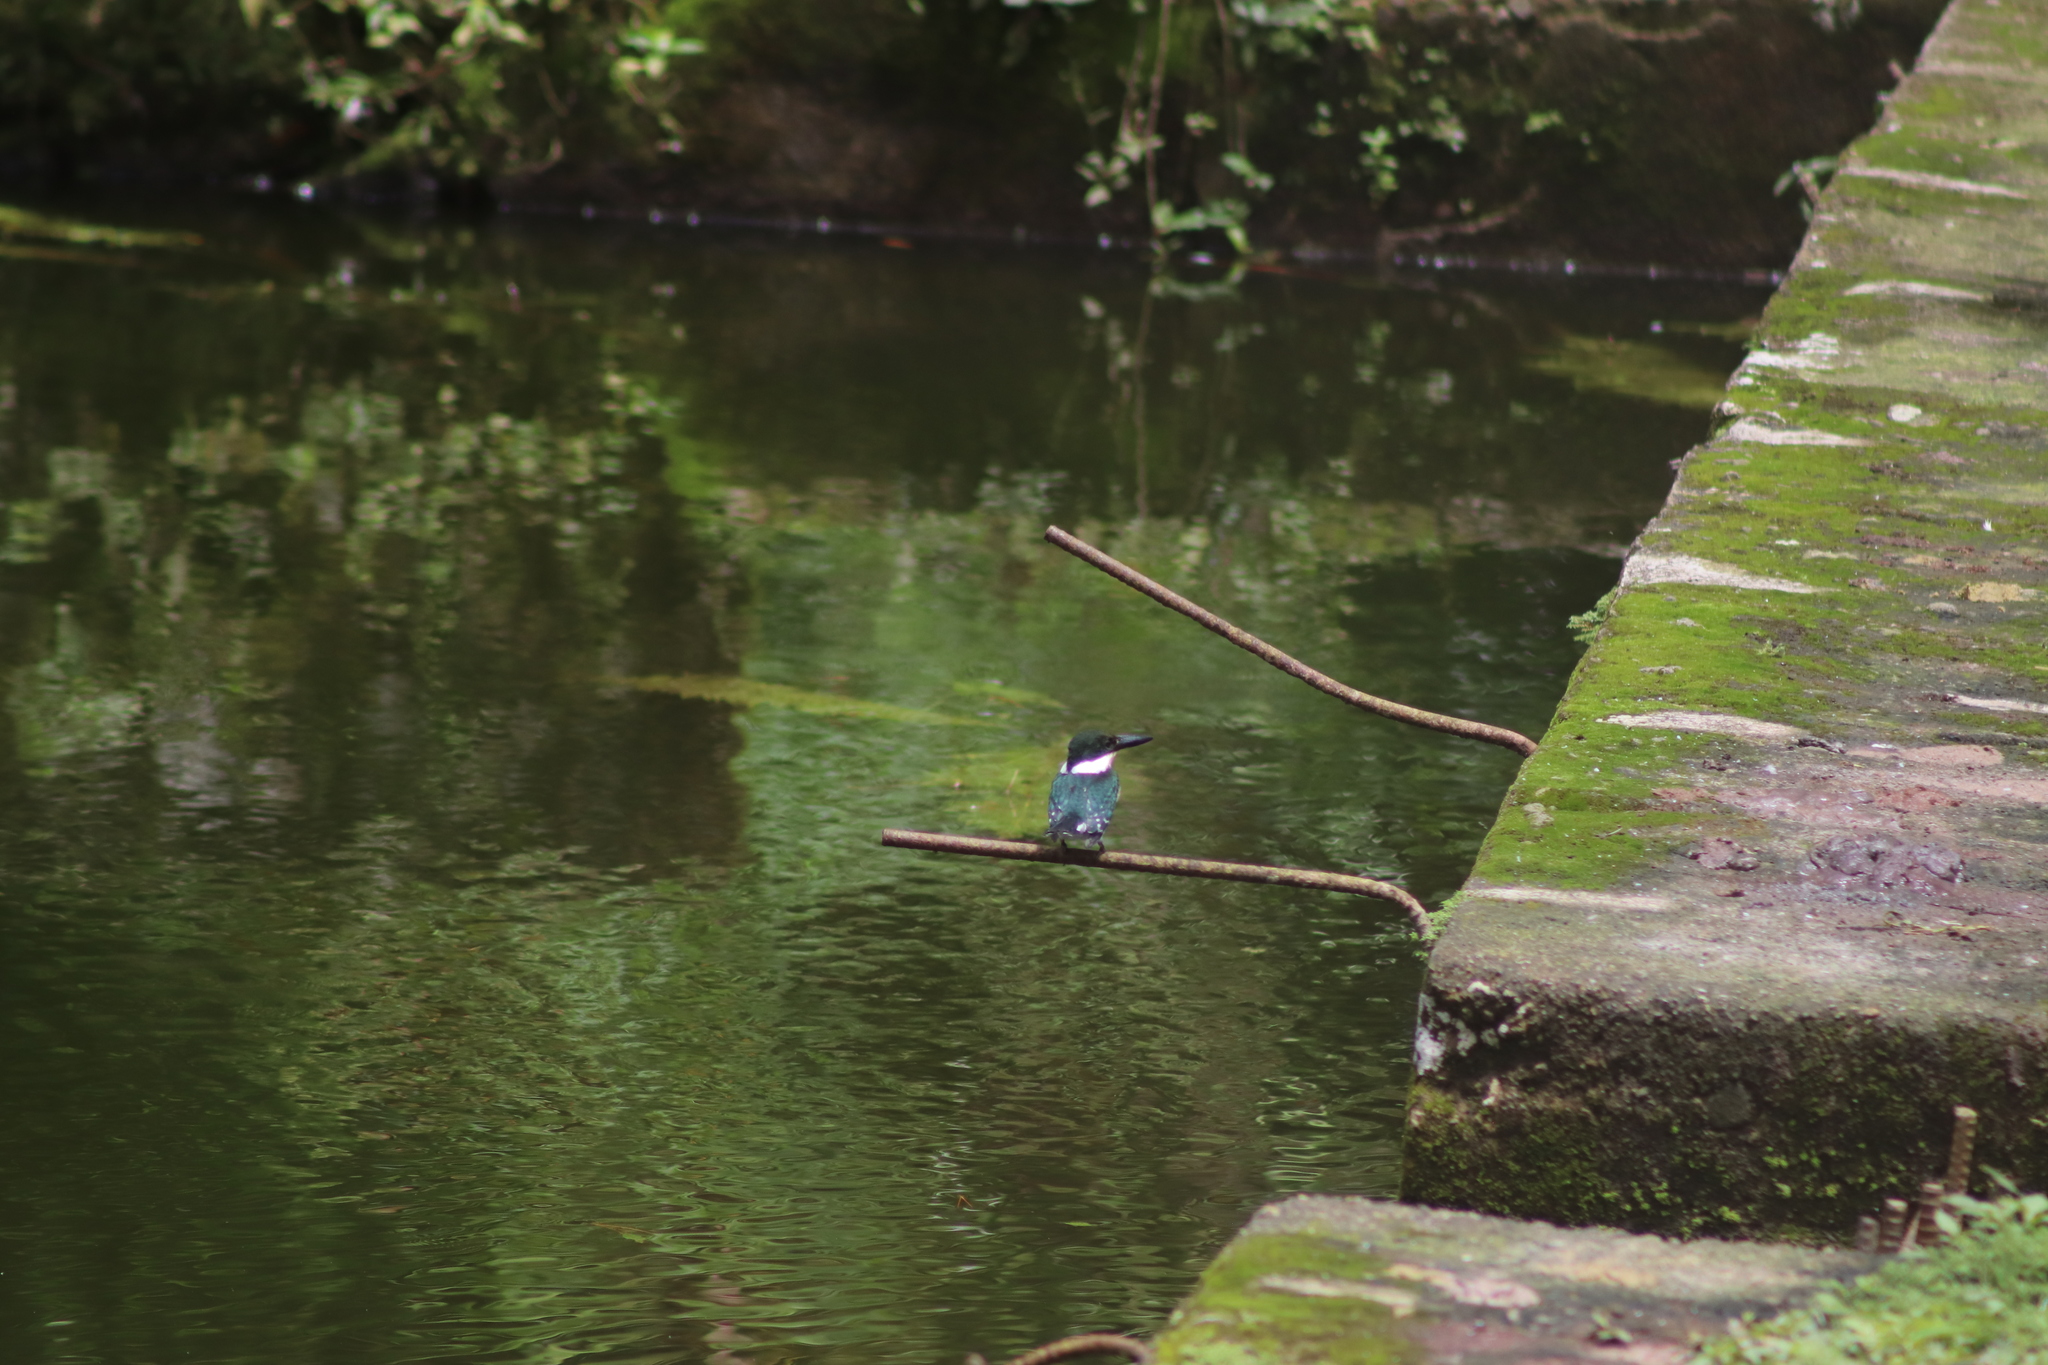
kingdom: Animalia
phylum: Chordata
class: Aves
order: Coraciiformes
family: Alcedinidae
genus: Chloroceryle
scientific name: Chloroceryle americana
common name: Green kingfisher
